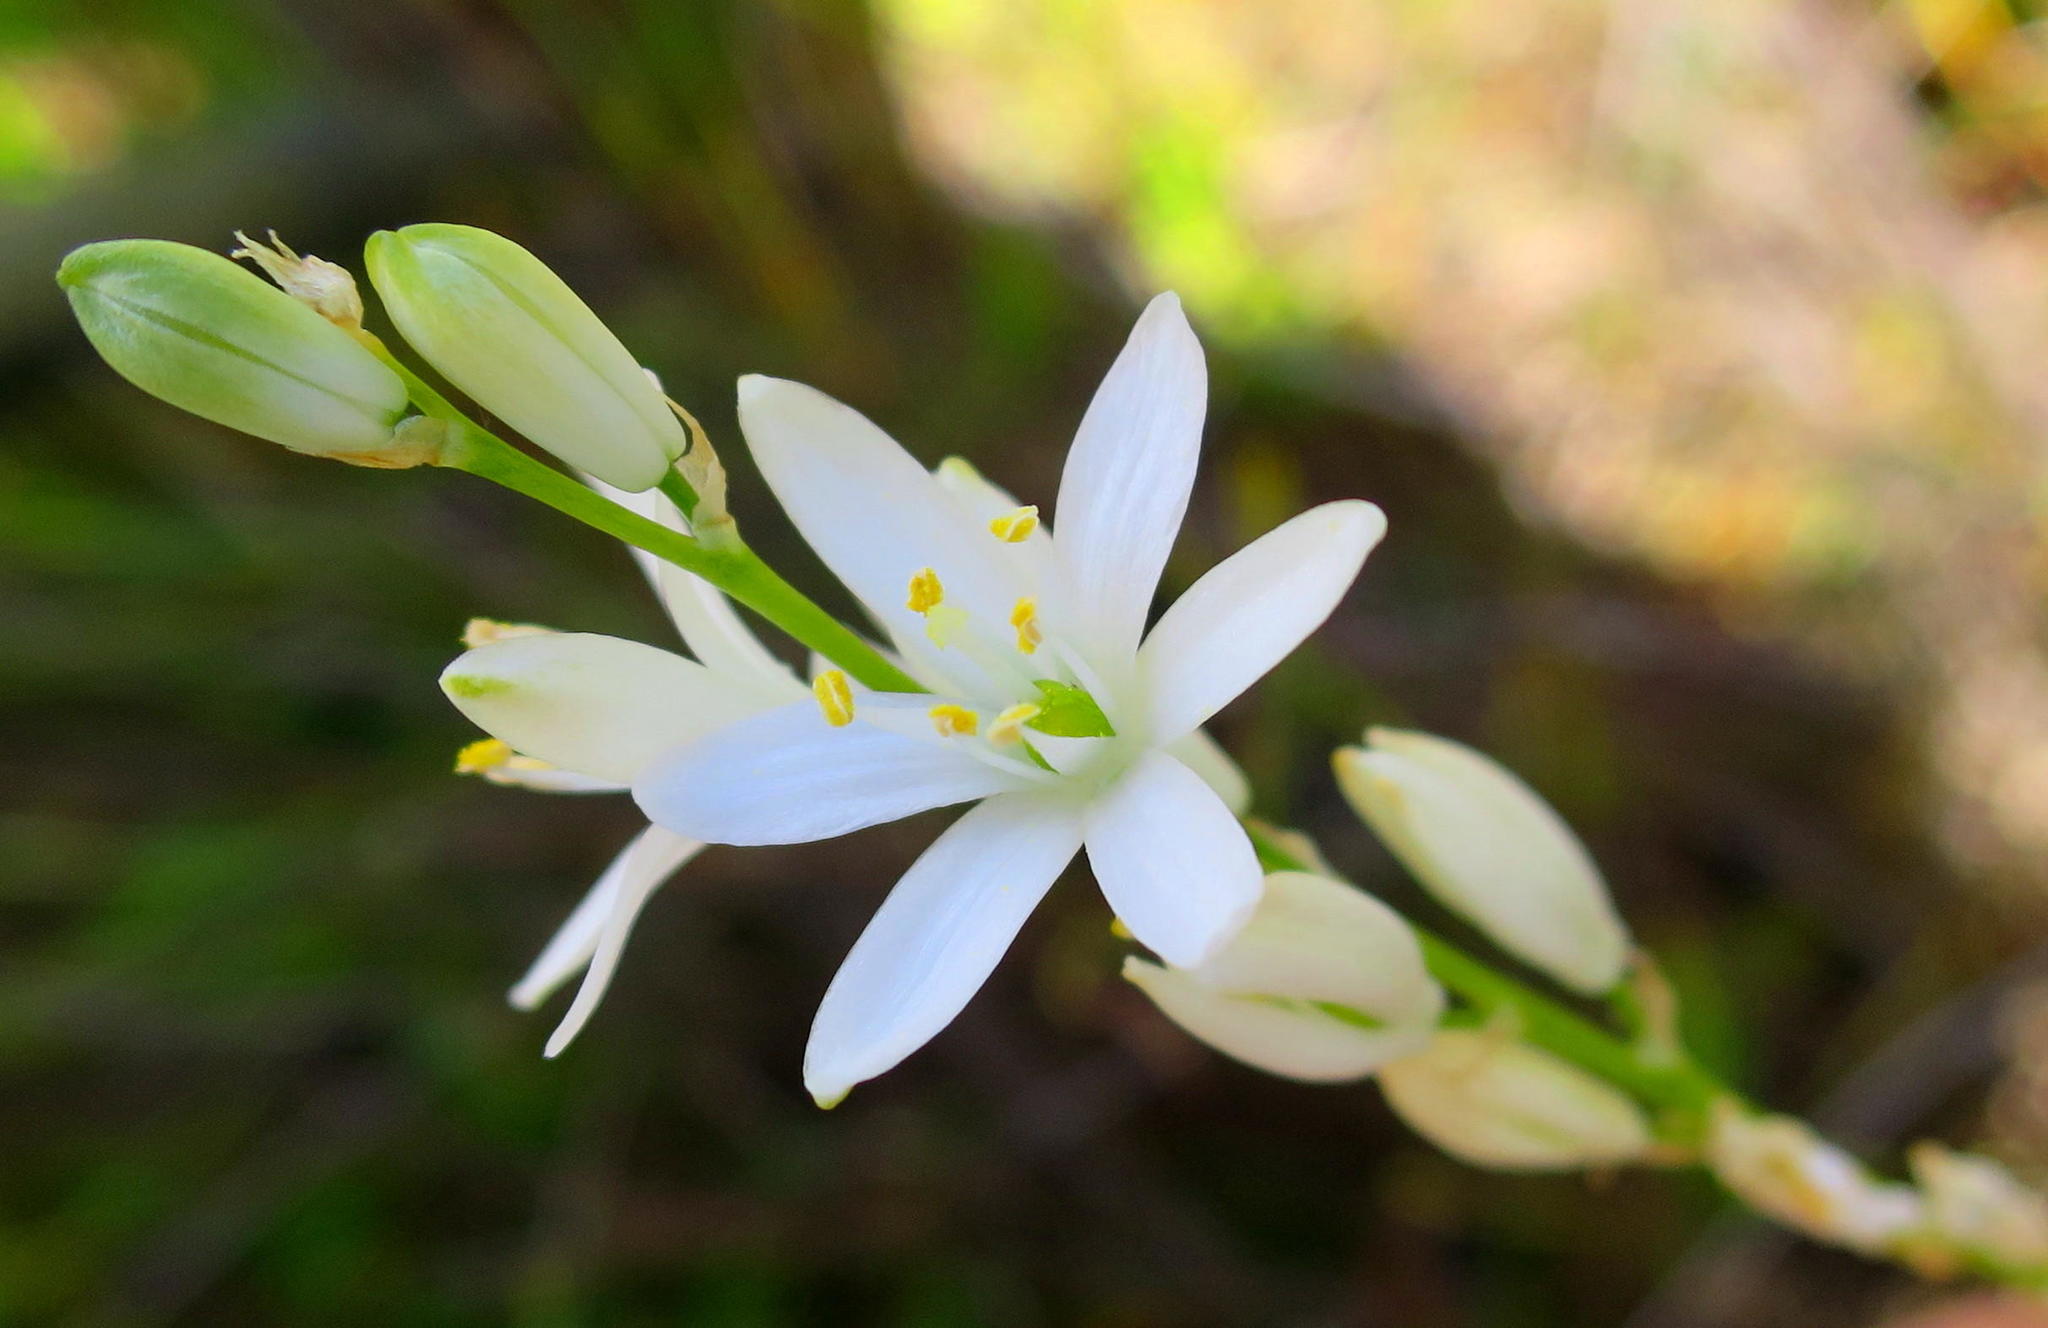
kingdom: Plantae
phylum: Tracheophyta
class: Liliopsida
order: Asparagales
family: Asparagaceae
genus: Ornithogalum
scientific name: Ornithogalum graminifolium
